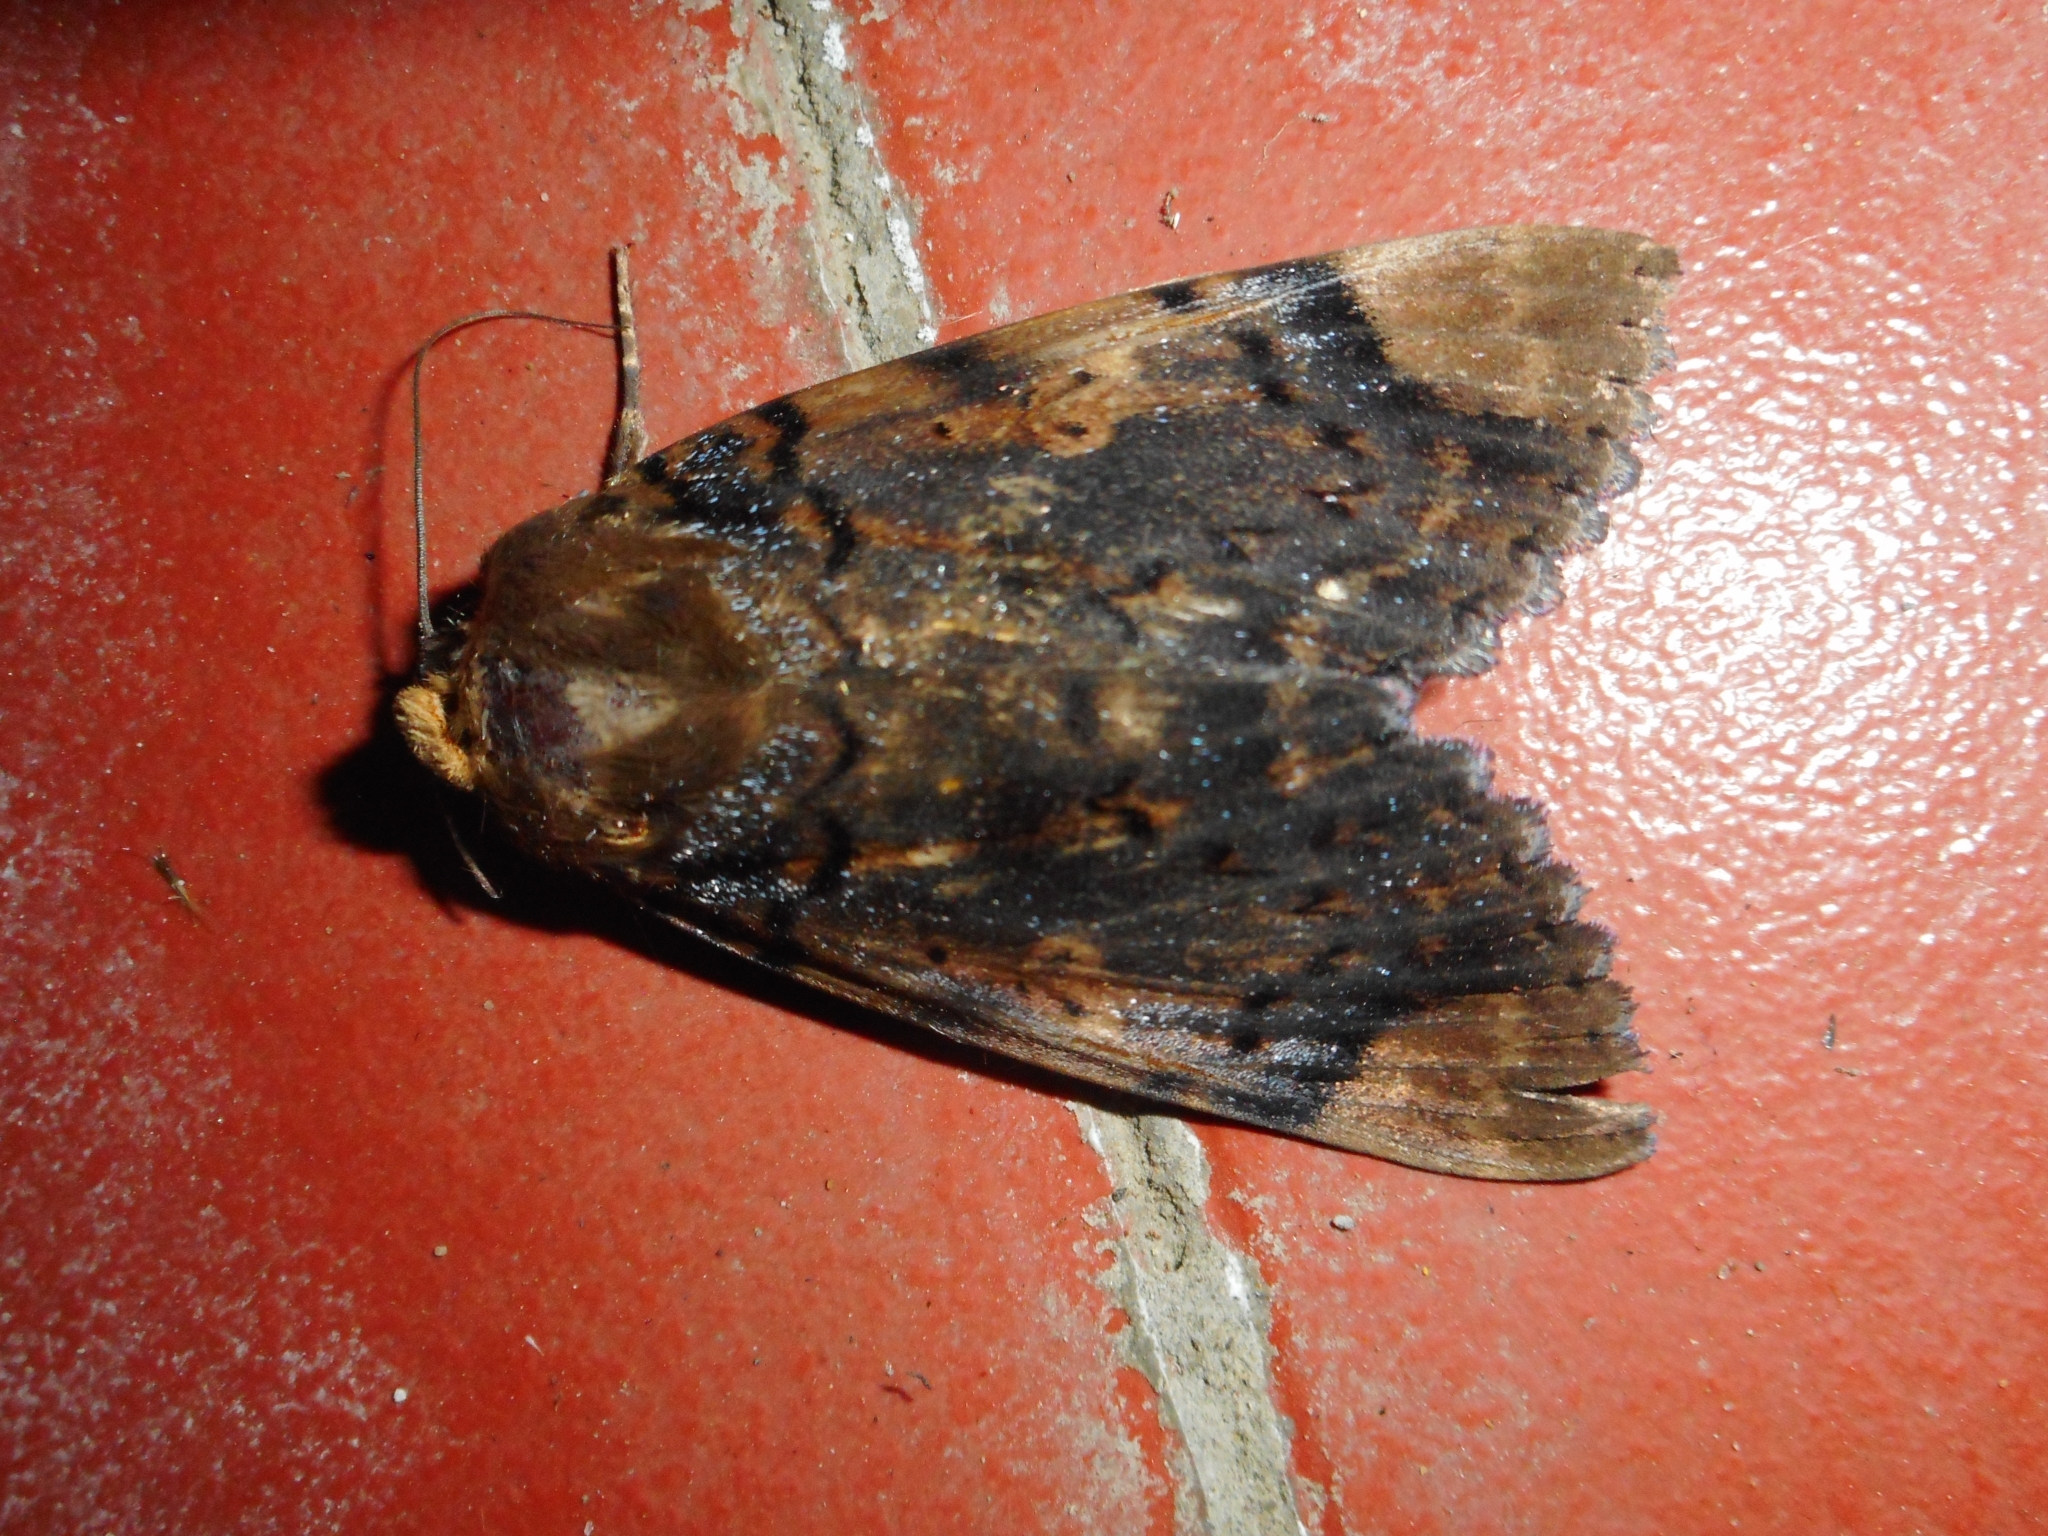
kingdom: Animalia
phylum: Arthropoda
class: Insecta
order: Lepidoptera
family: Erebidae
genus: Arcte
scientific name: Arcte coerula
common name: Ramie moth
